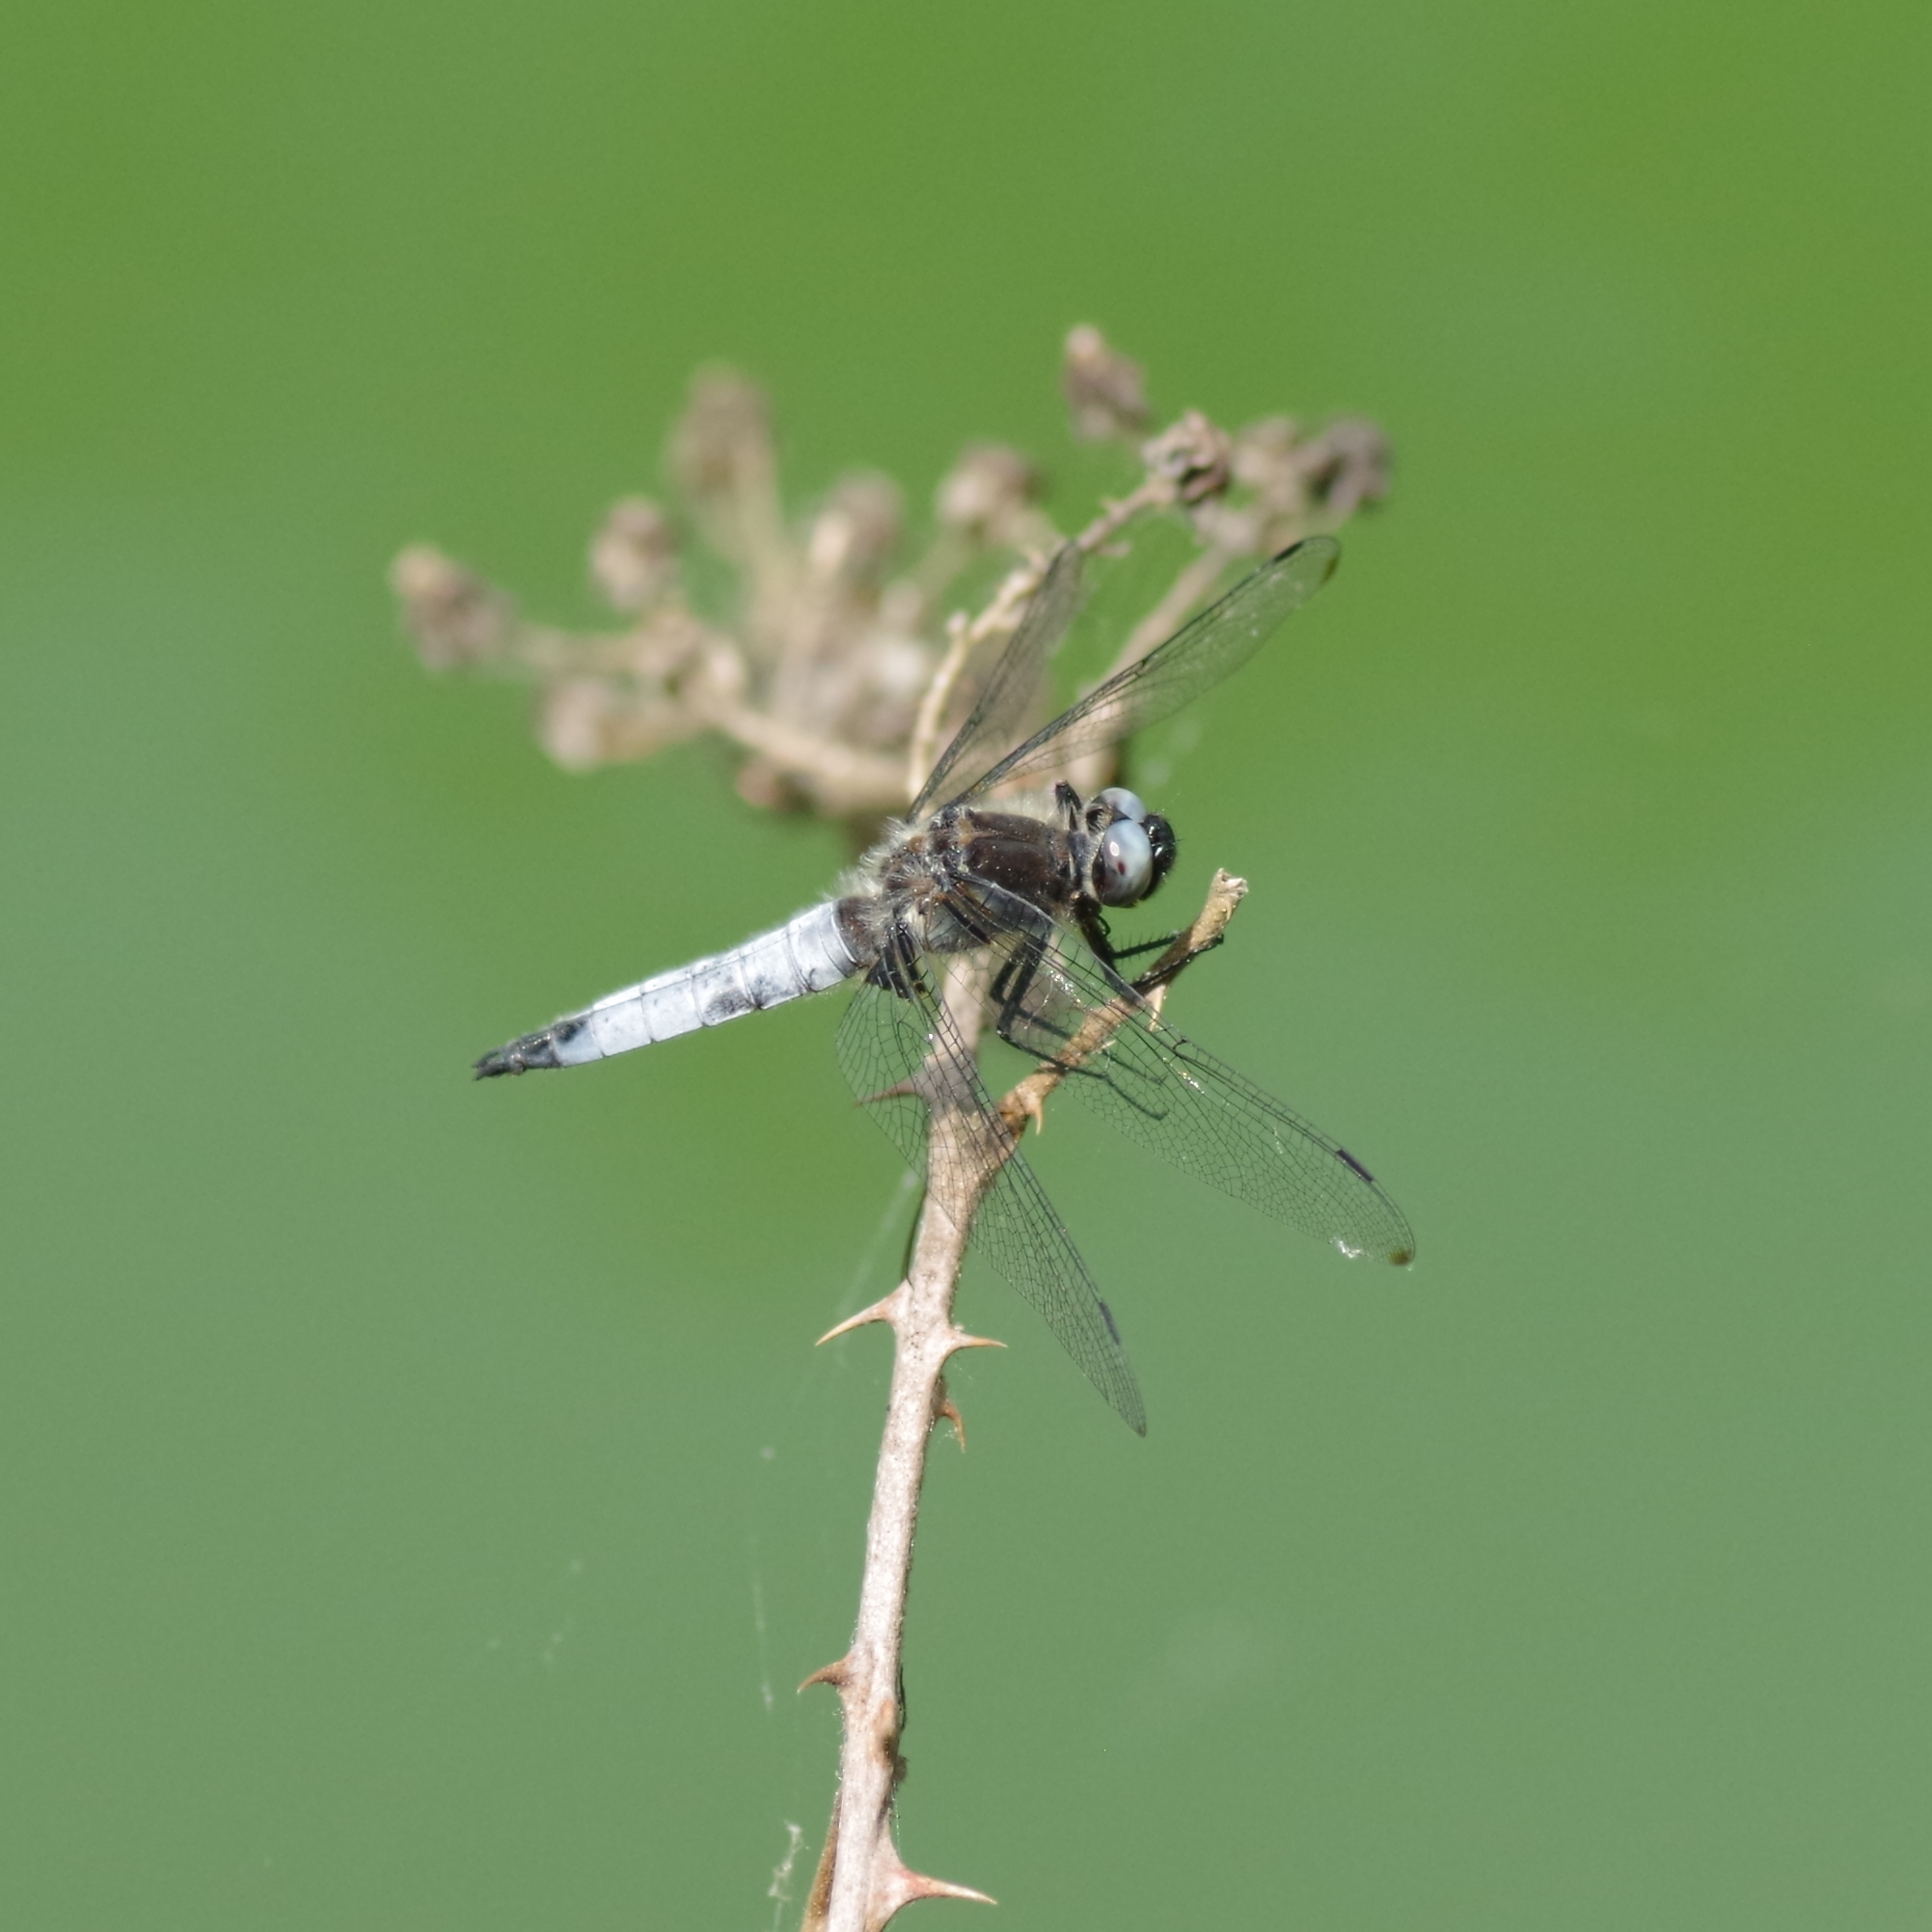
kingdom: Animalia
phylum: Arthropoda
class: Insecta
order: Odonata
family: Libellulidae
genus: Libellula
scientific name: Libellula fulva
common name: Blue chaser
